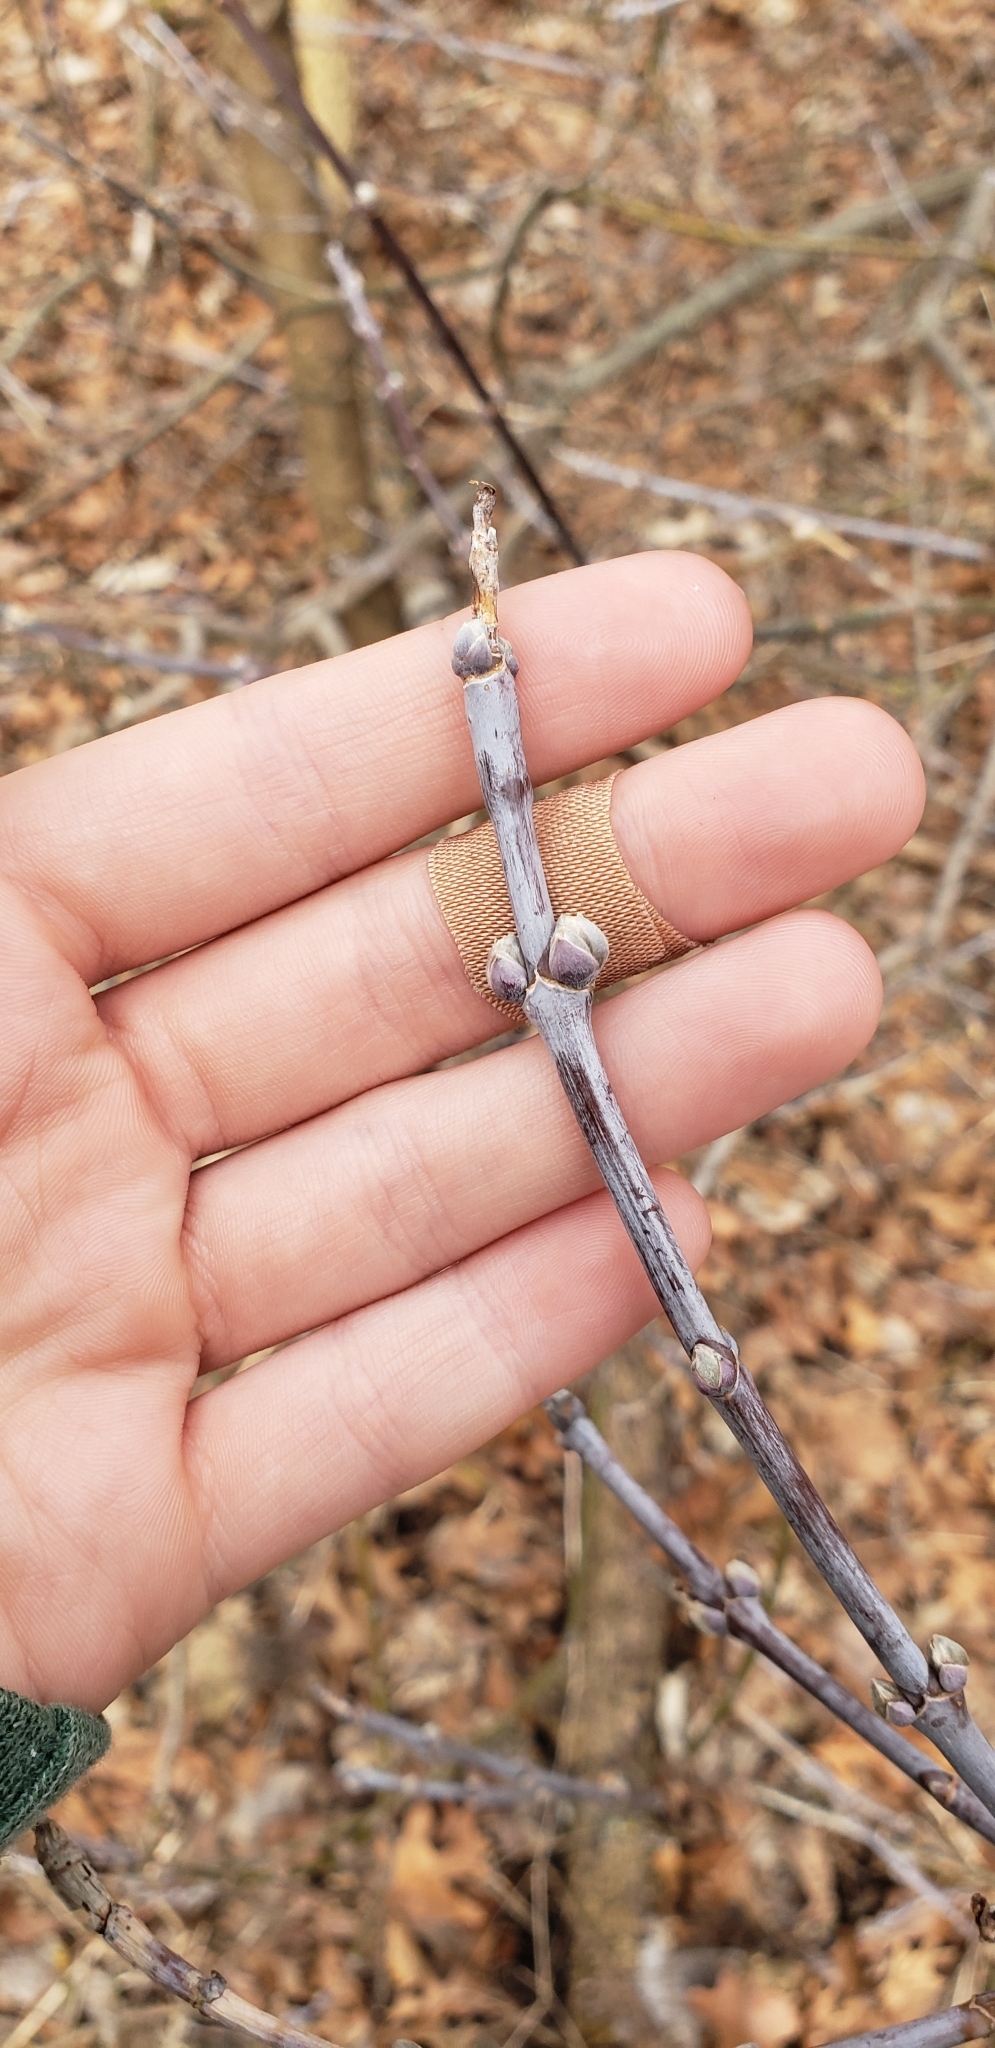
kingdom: Plantae
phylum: Tracheophyta
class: Magnoliopsida
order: Sapindales
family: Sapindaceae
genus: Acer
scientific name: Acer negundo
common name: Ashleaf maple
